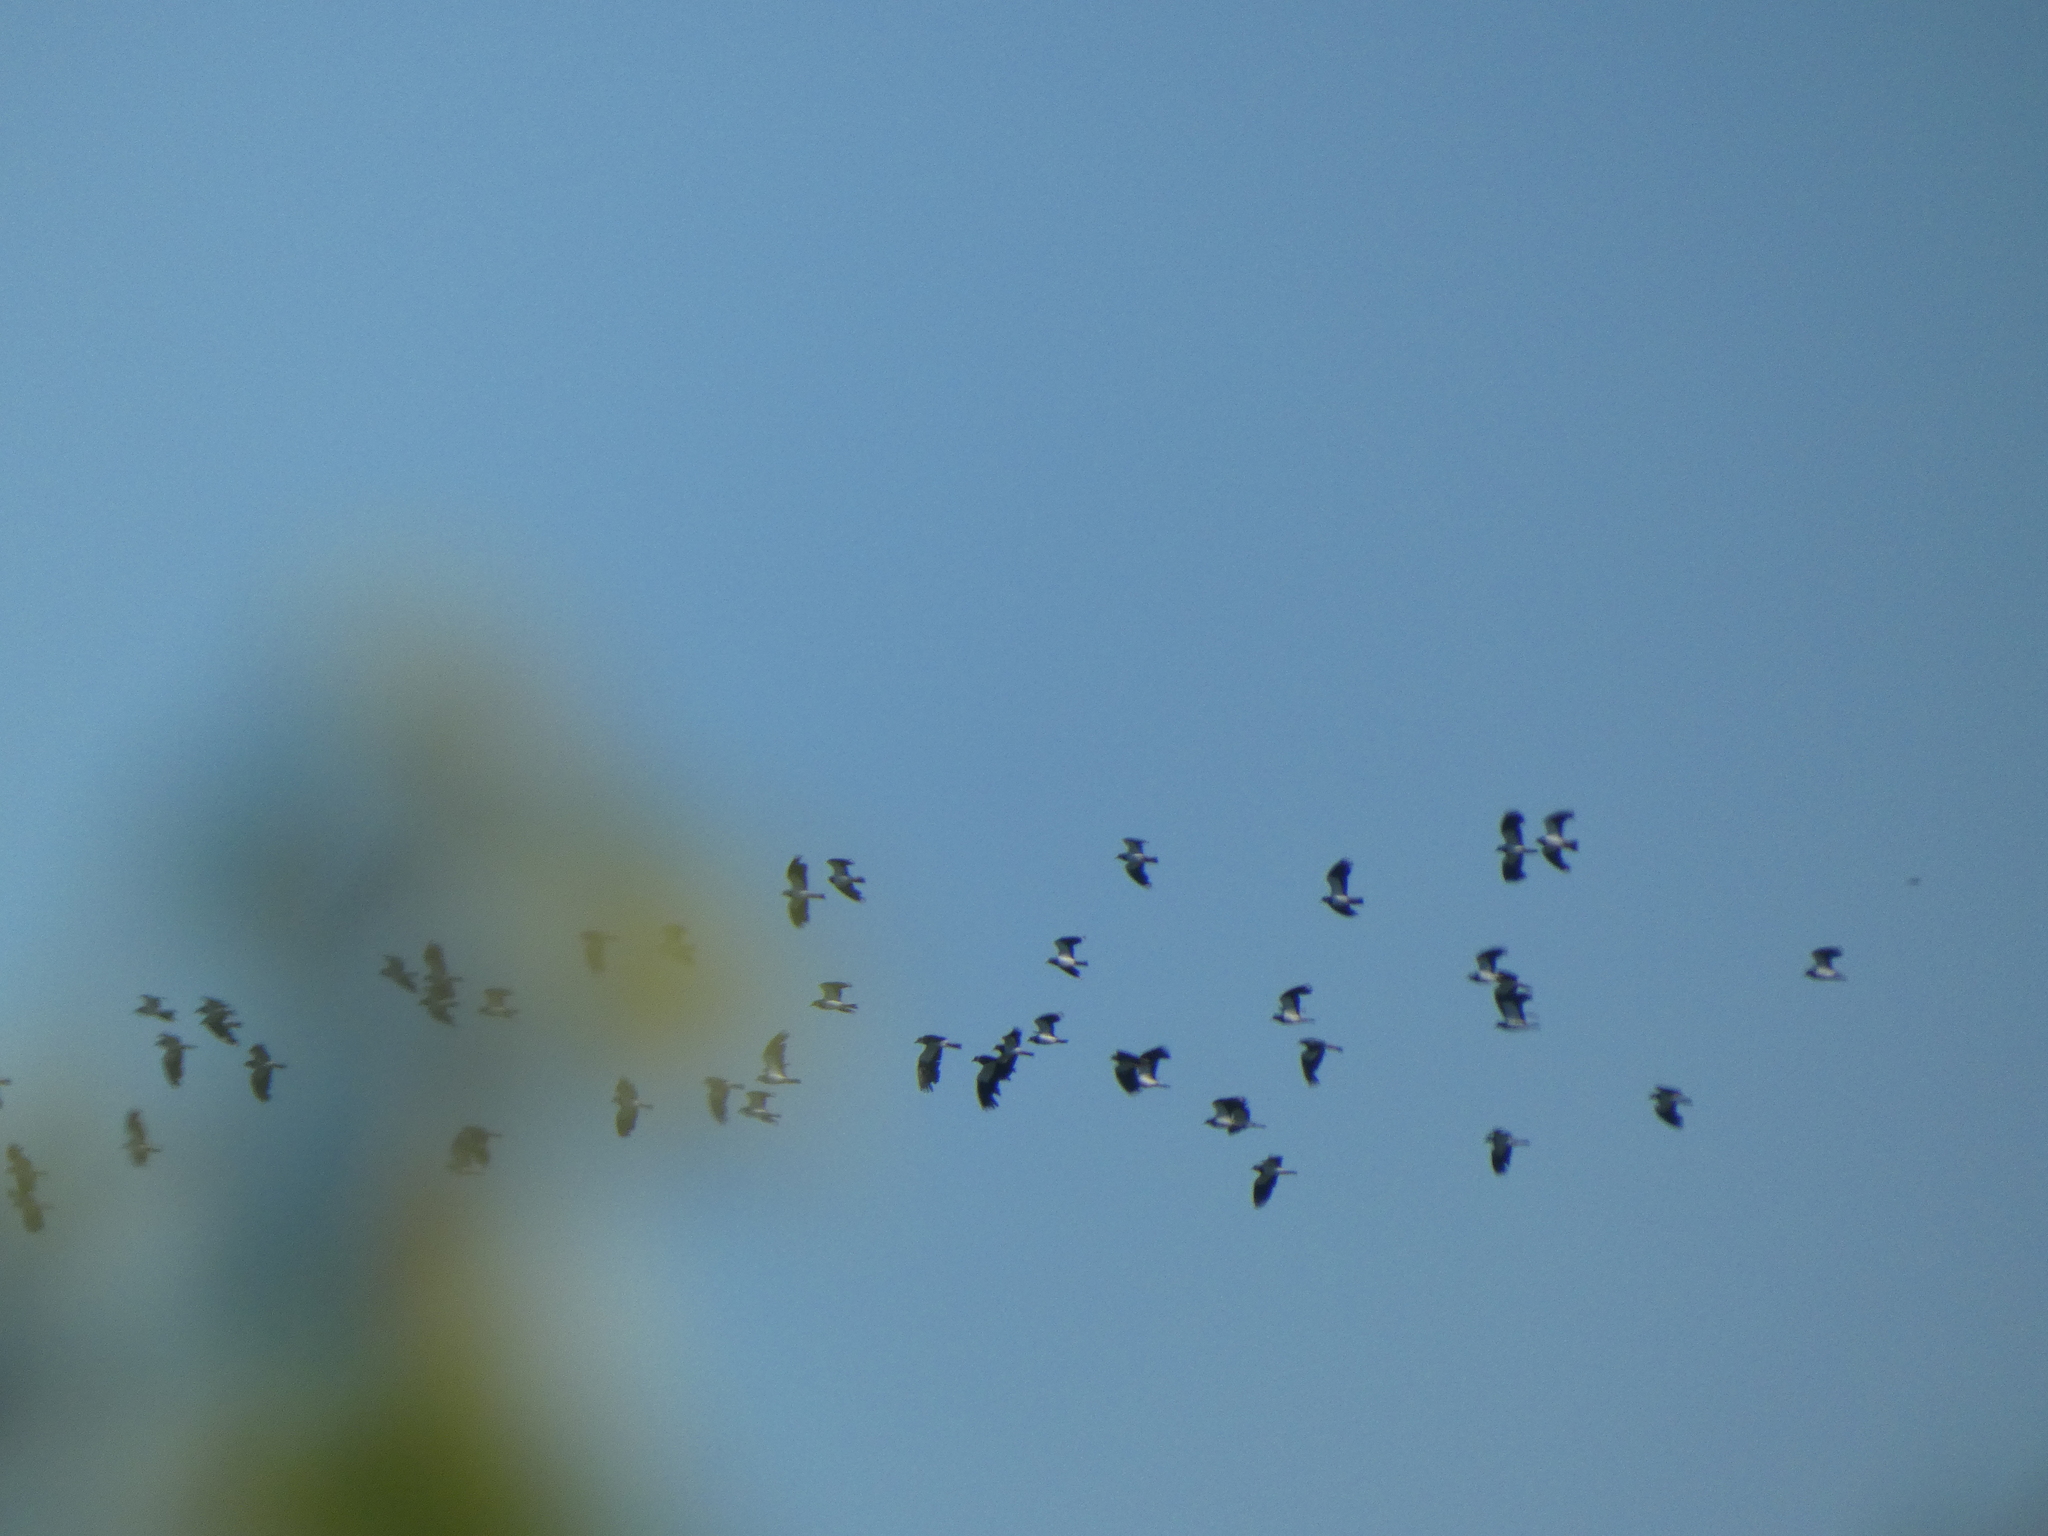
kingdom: Animalia
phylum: Chordata
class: Aves
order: Charadriiformes
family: Charadriidae
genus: Vanellus
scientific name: Vanellus vanellus
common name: Northern lapwing
